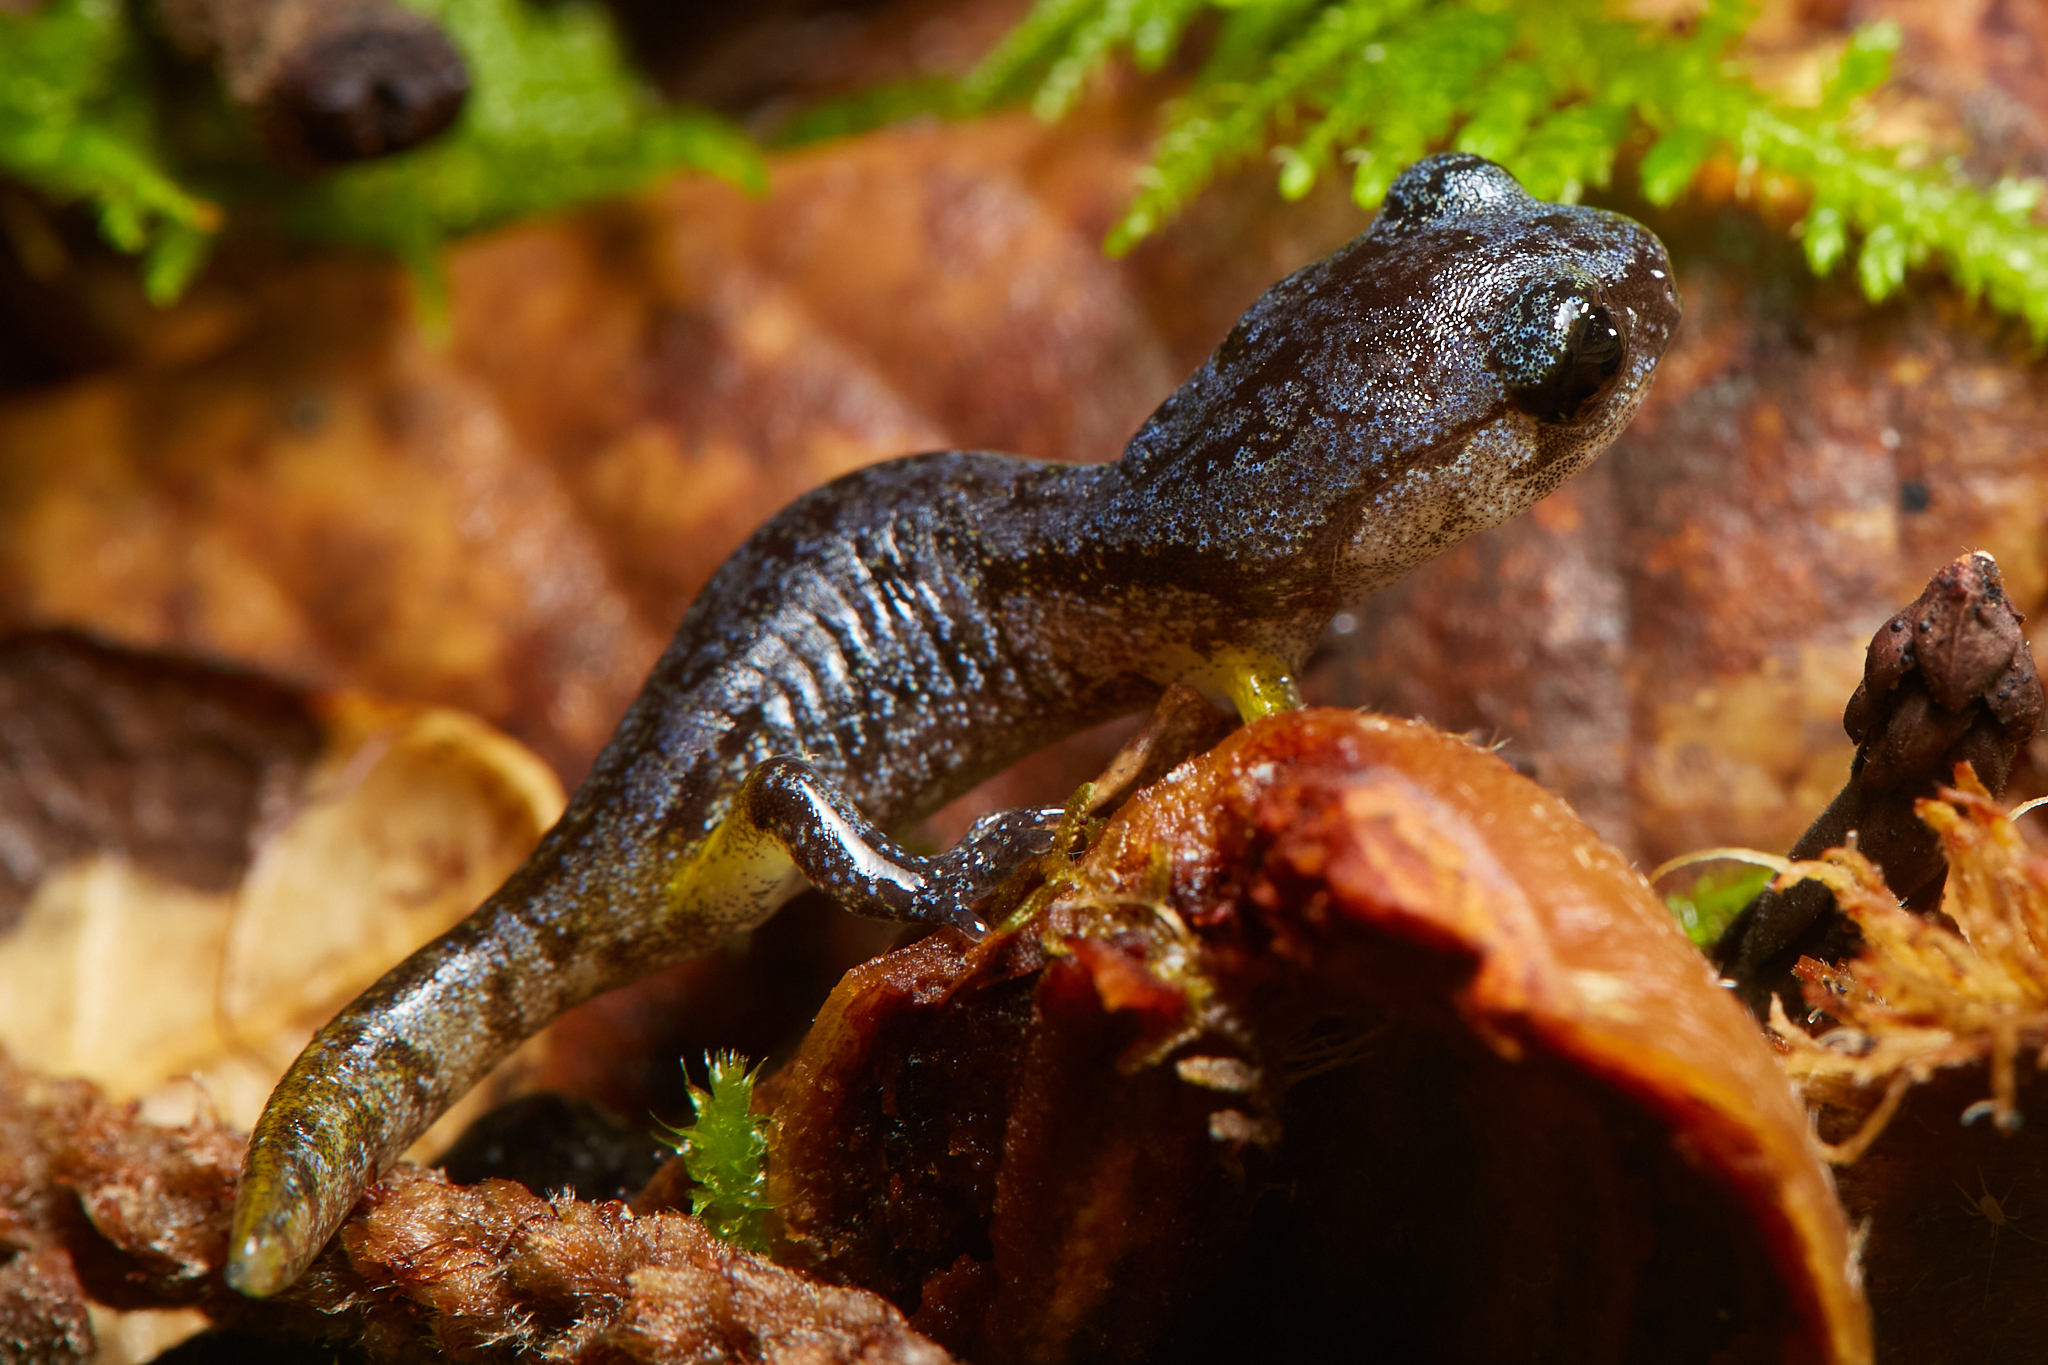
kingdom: Animalia
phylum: Chordata
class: Amphibia
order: Caudata
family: Plethodontidae
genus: Ensatina
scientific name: Ensatina eschscholtzii
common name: Ensatina
